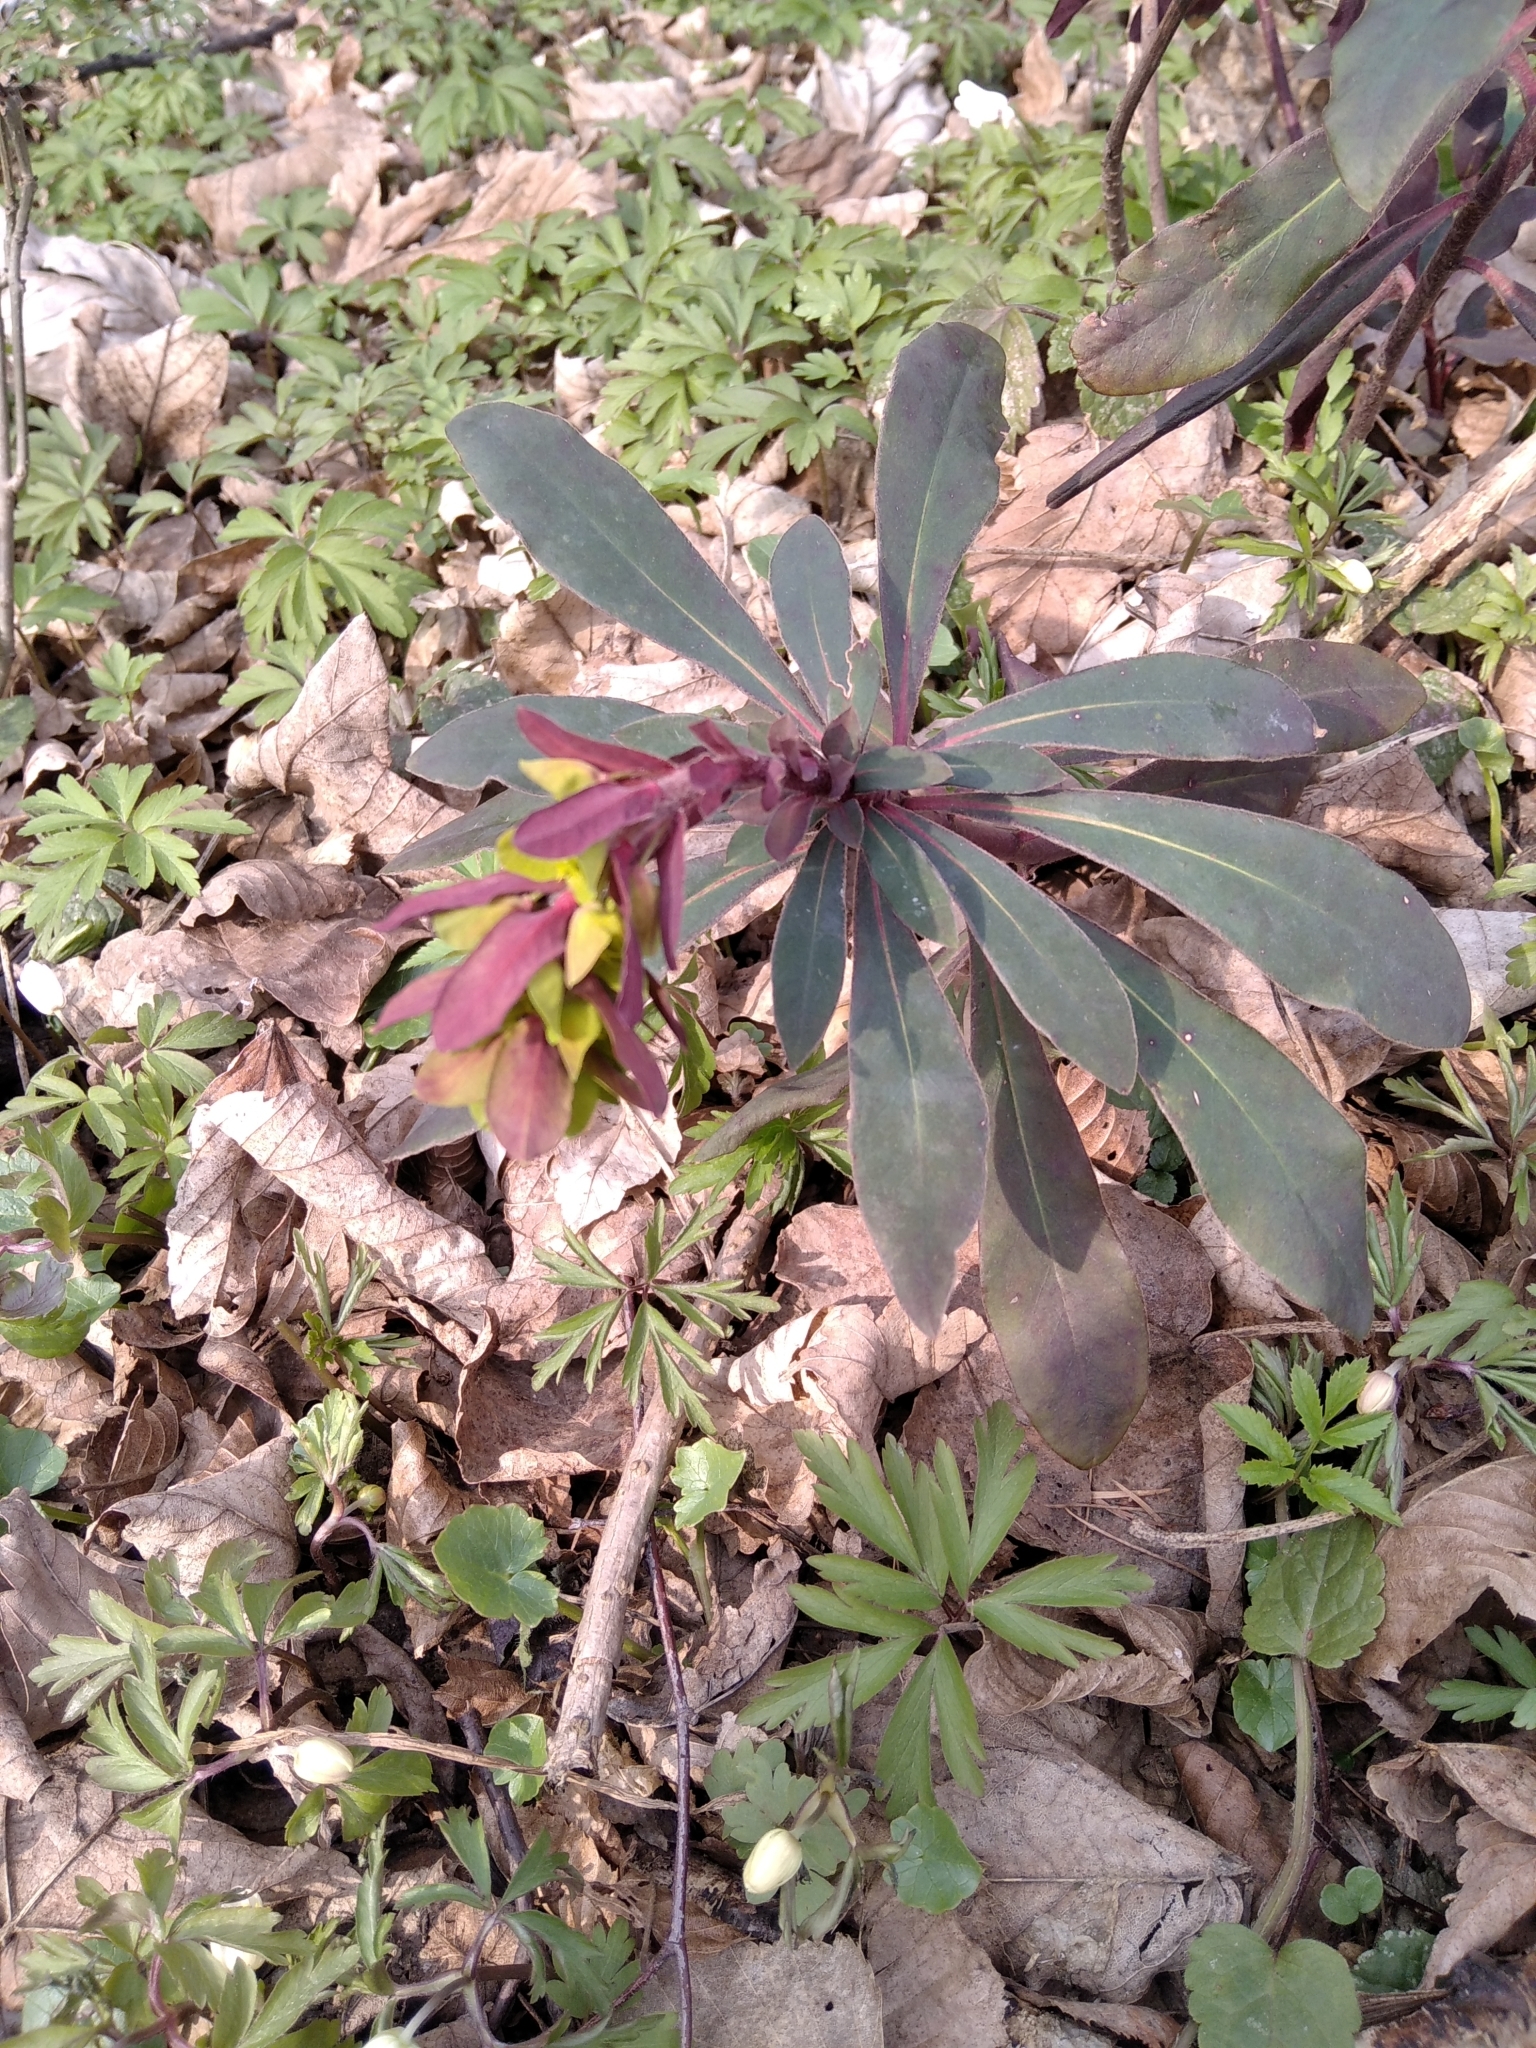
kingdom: Plantae
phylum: Tracheophyta
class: Magnoliopsida
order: Malpighiales
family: Euphorbiaceae
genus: Euphorbia
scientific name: Euphorbia amygdaloides
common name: Wood spurge
